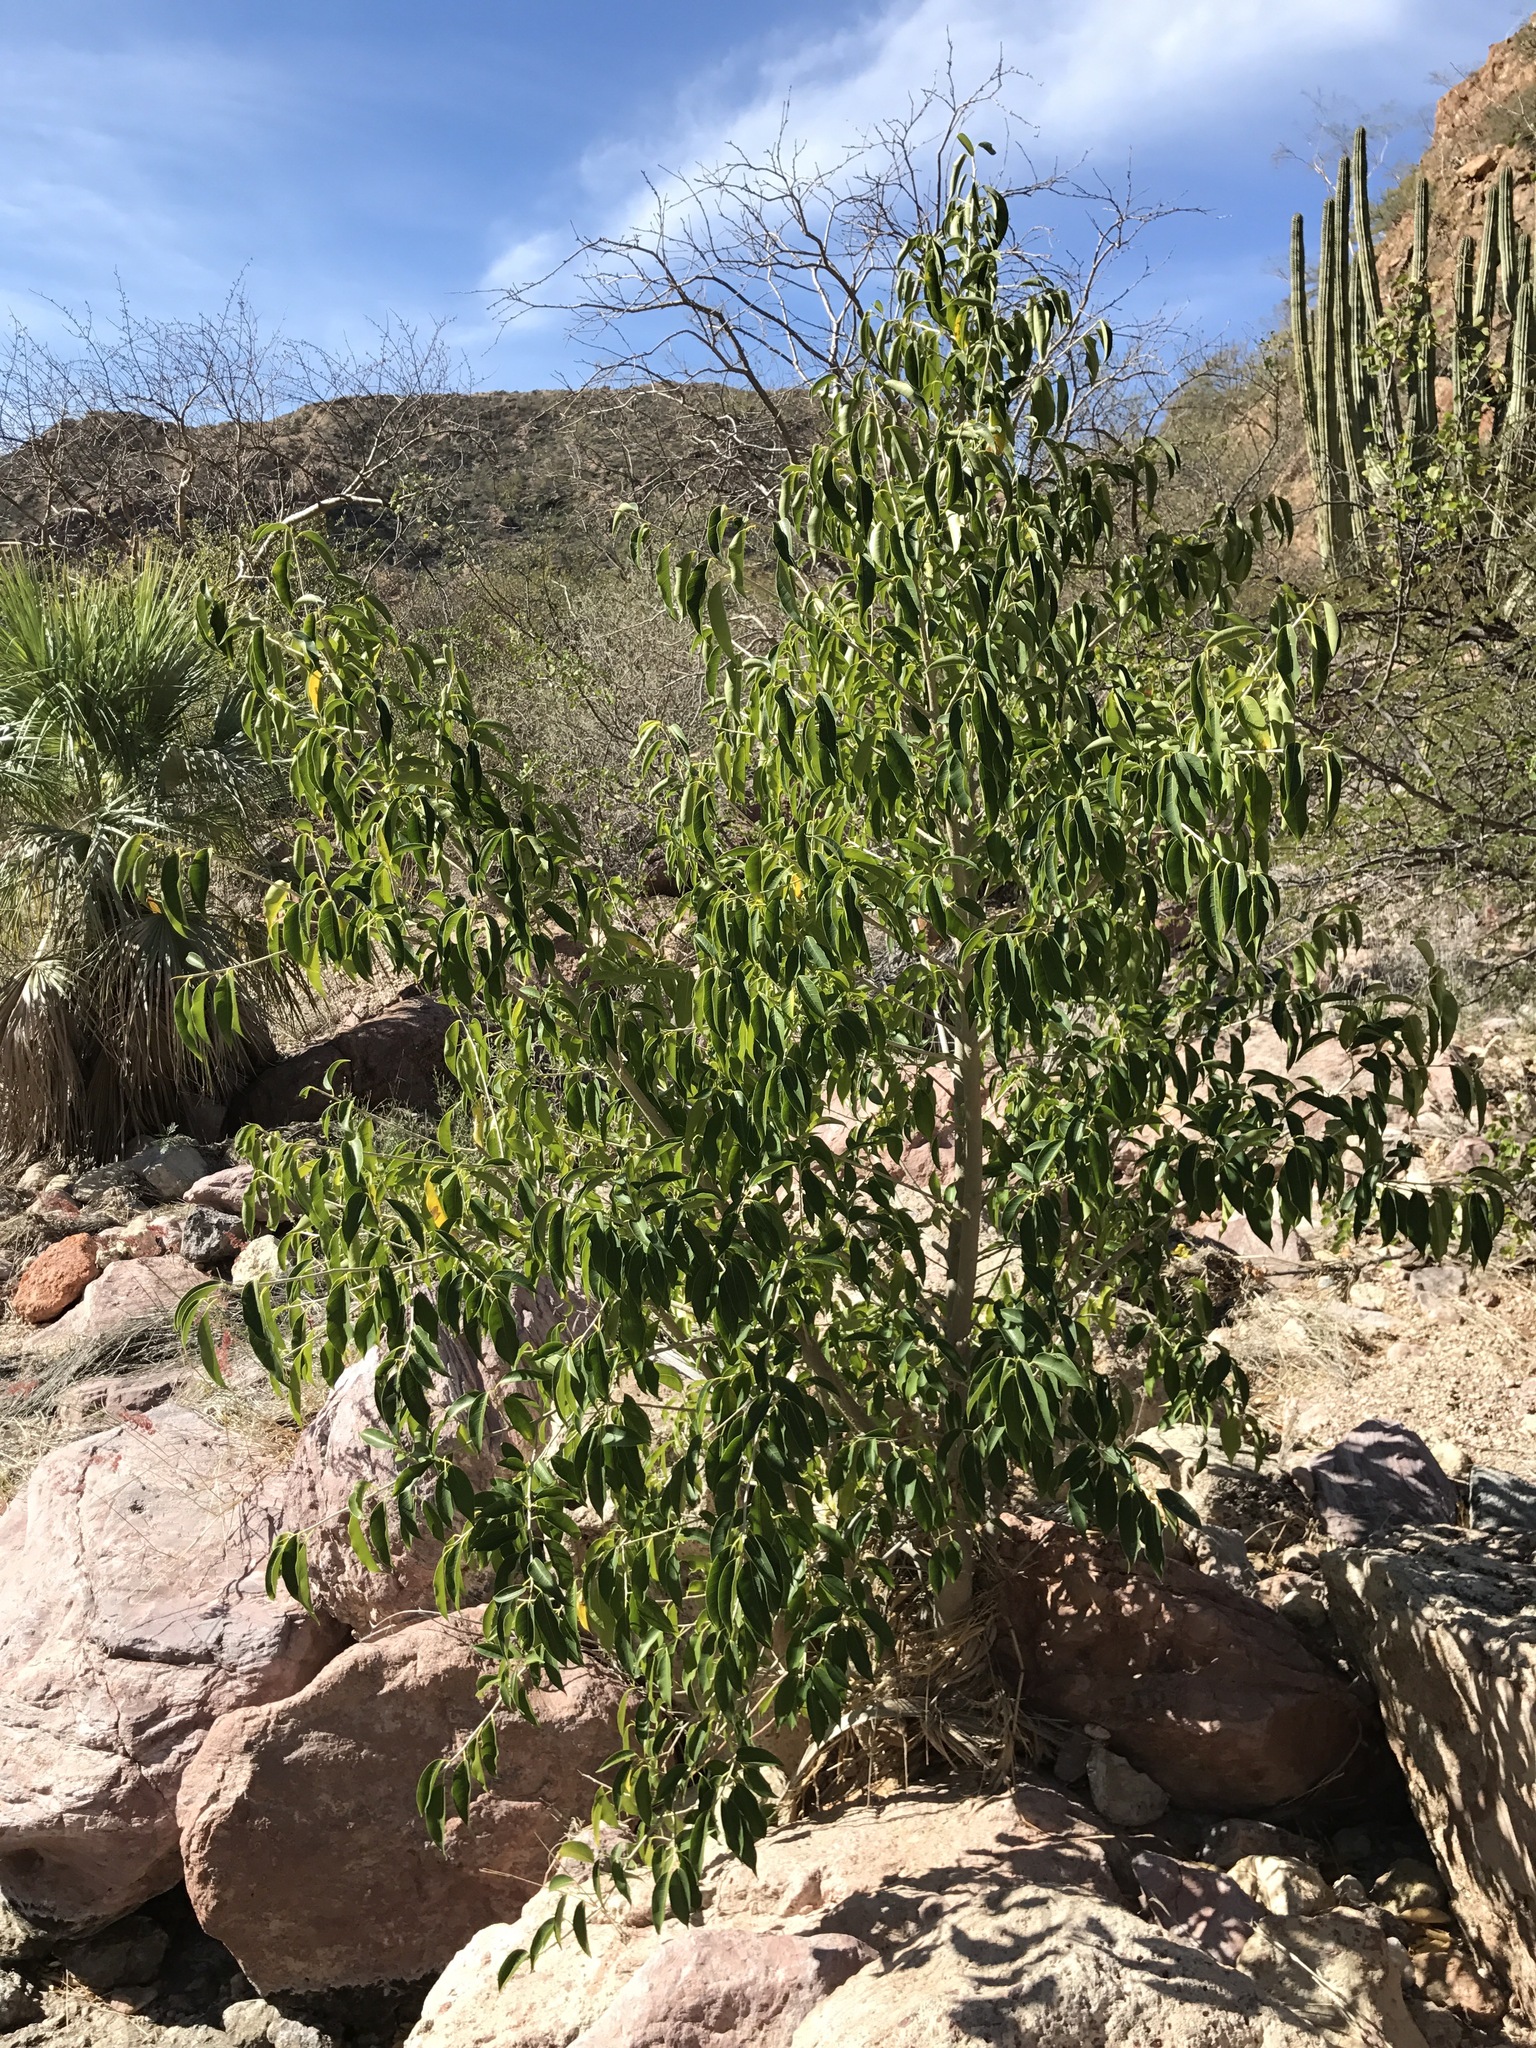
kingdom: Plantae
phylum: Tracheophyta
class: Magnoliopsida
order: Rosales
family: Moraceae
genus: Ficus
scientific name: Ficus pertusa
